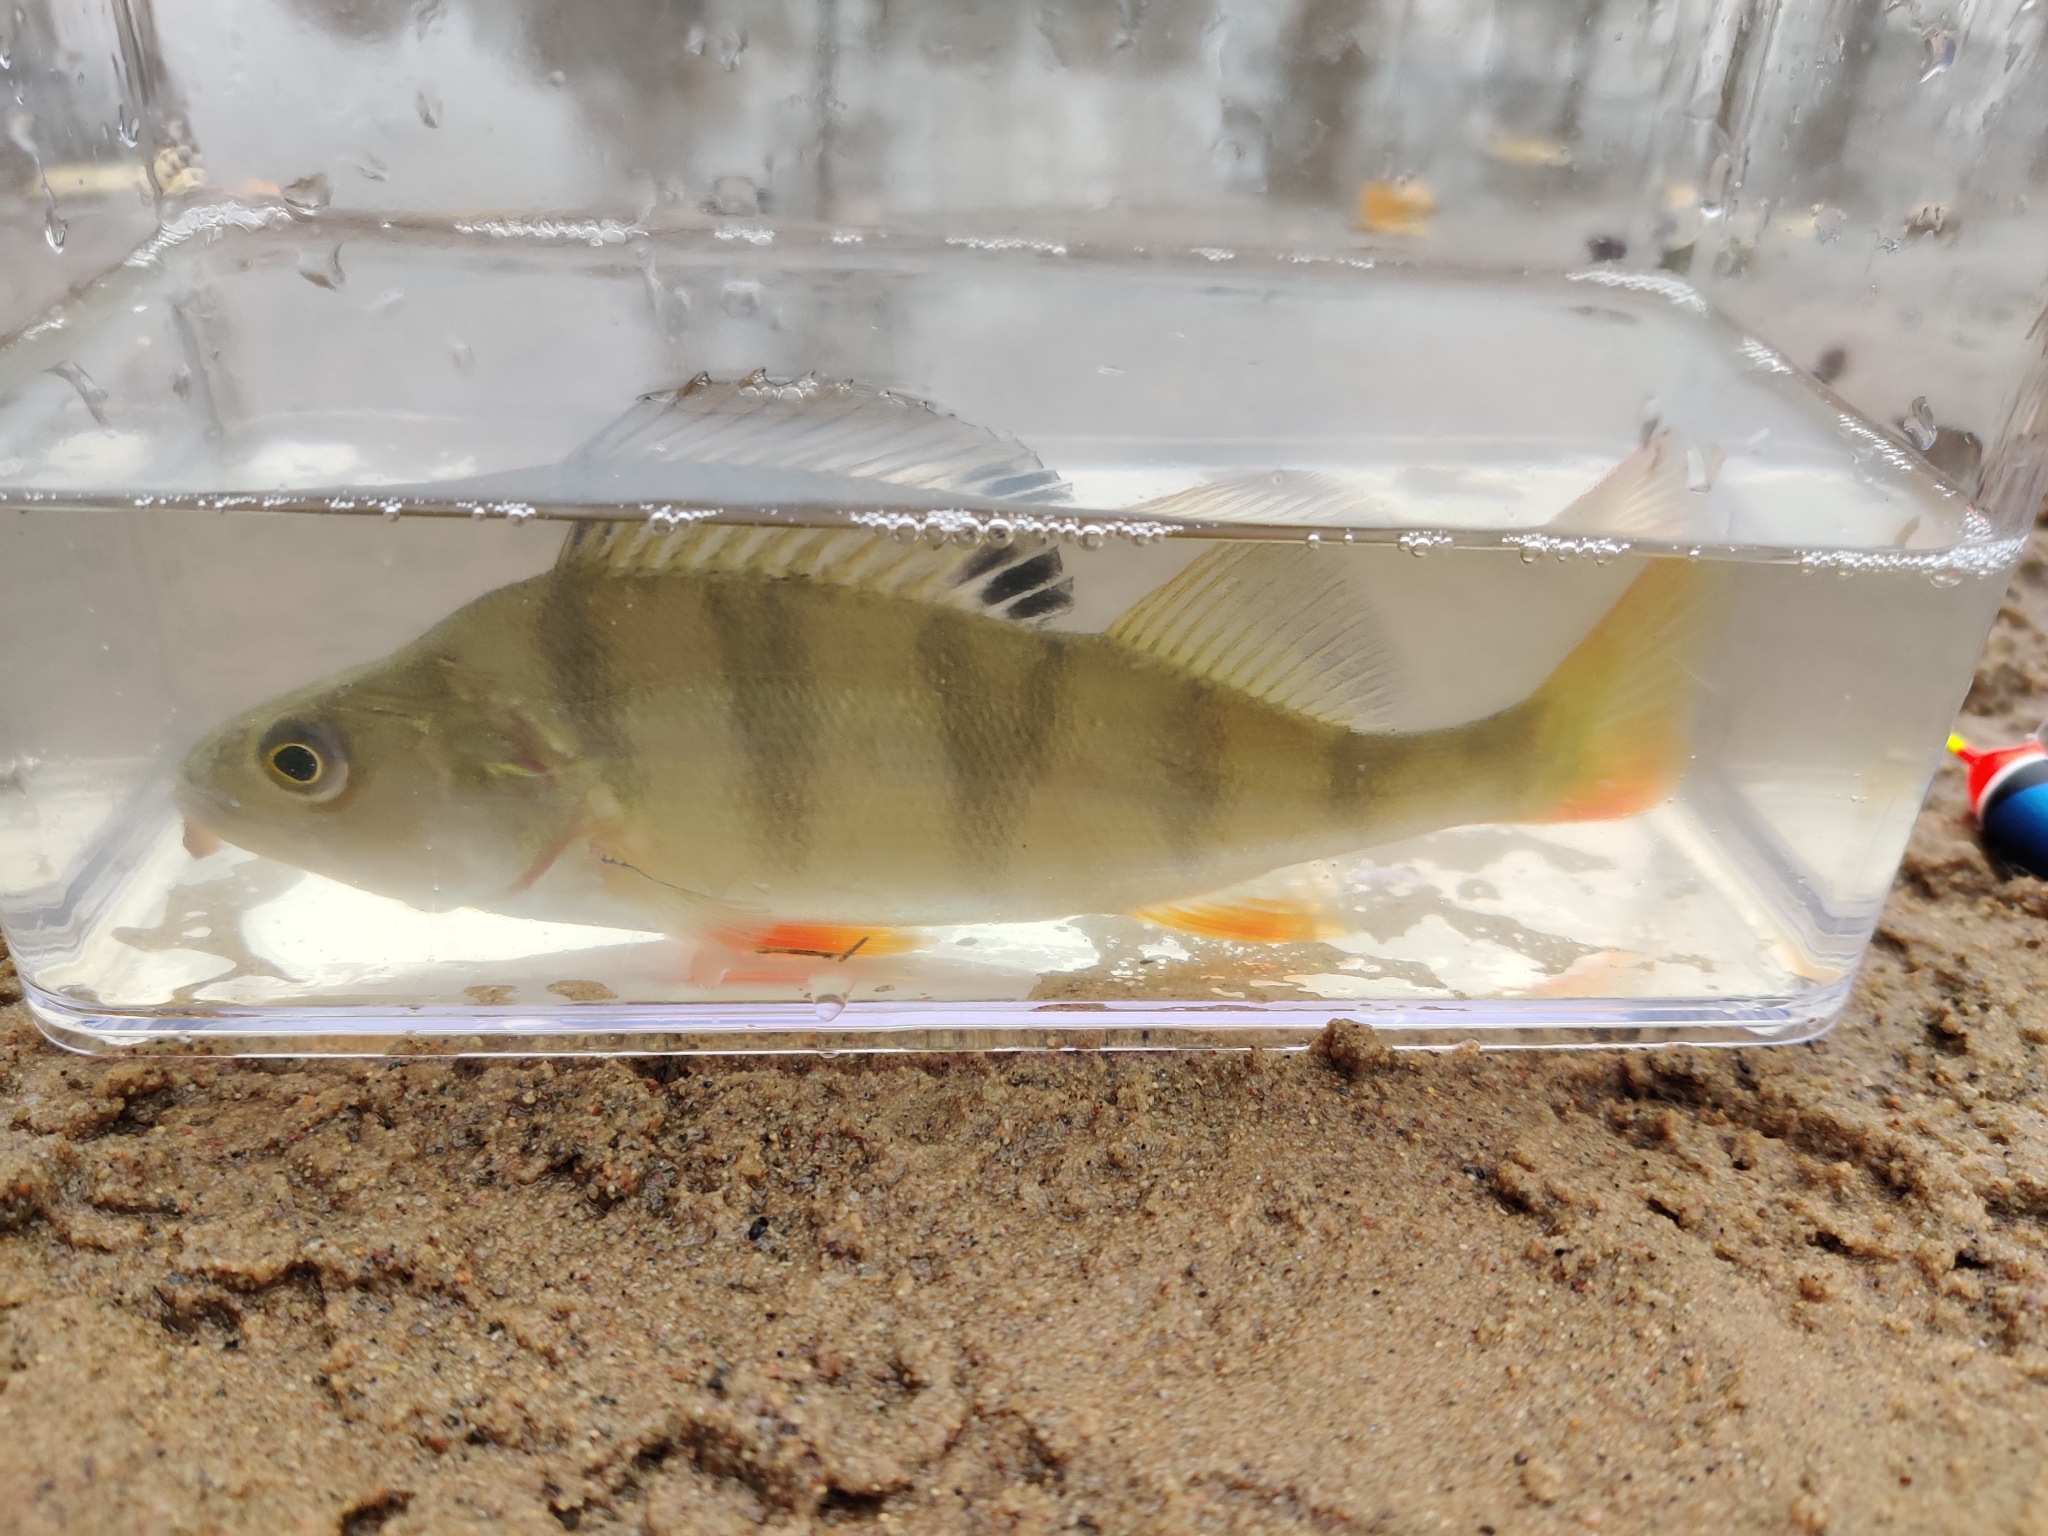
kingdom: Animalia
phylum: Chordata
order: Perciformes
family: Percidae
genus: Perca
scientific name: Perca fluviatilis
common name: Perch
